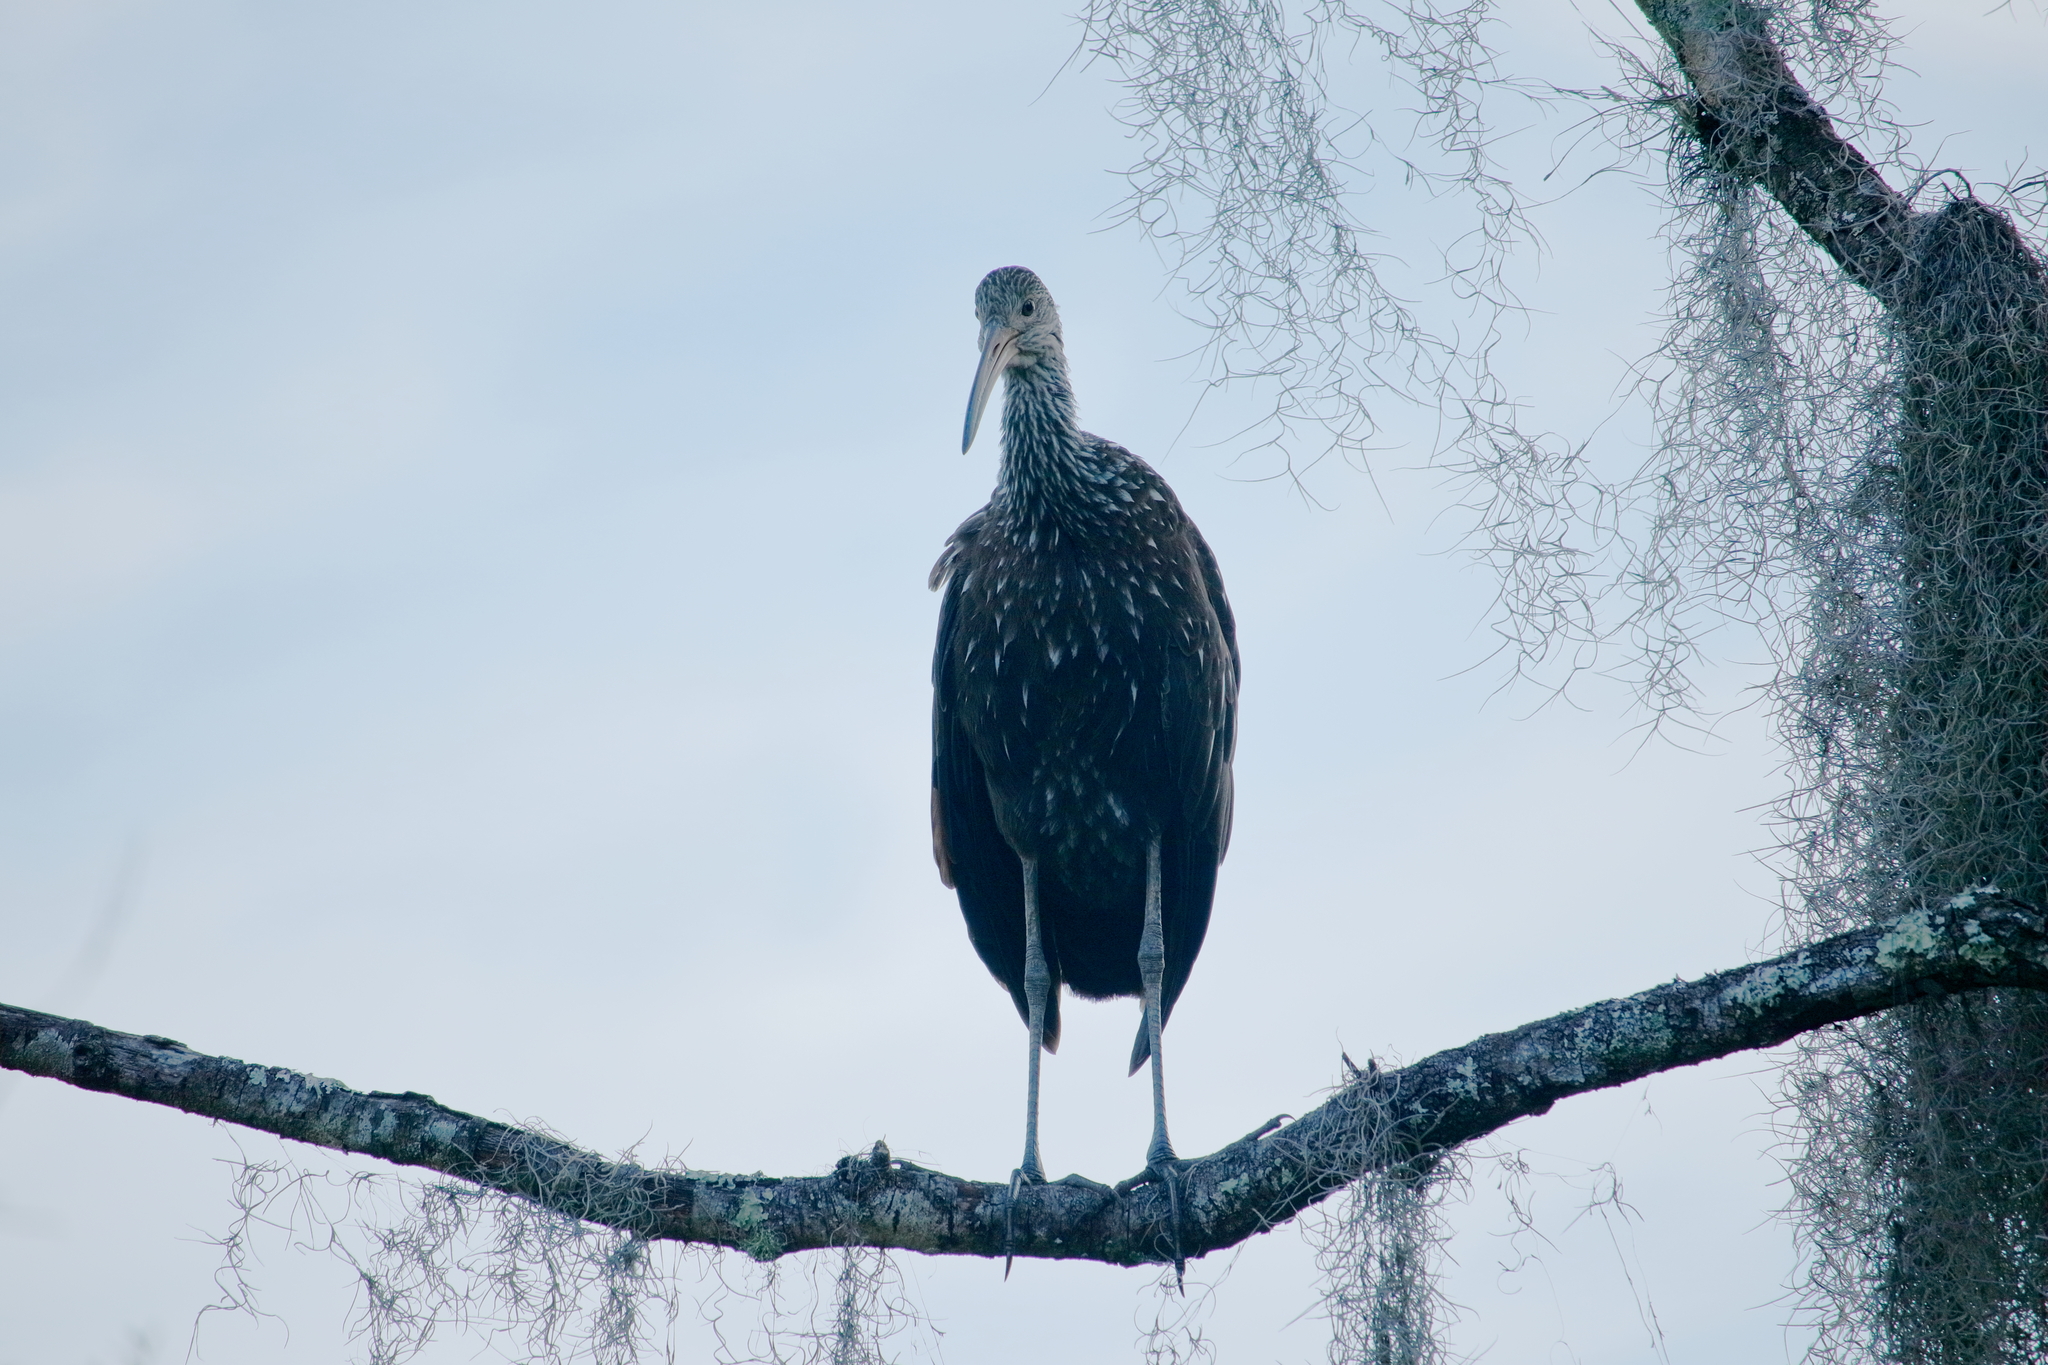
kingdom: Animalia
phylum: Chordata
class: Aves
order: Gruiformes
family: Aramidae
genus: Aramus
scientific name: Aramus guarauna
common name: Limpkin
